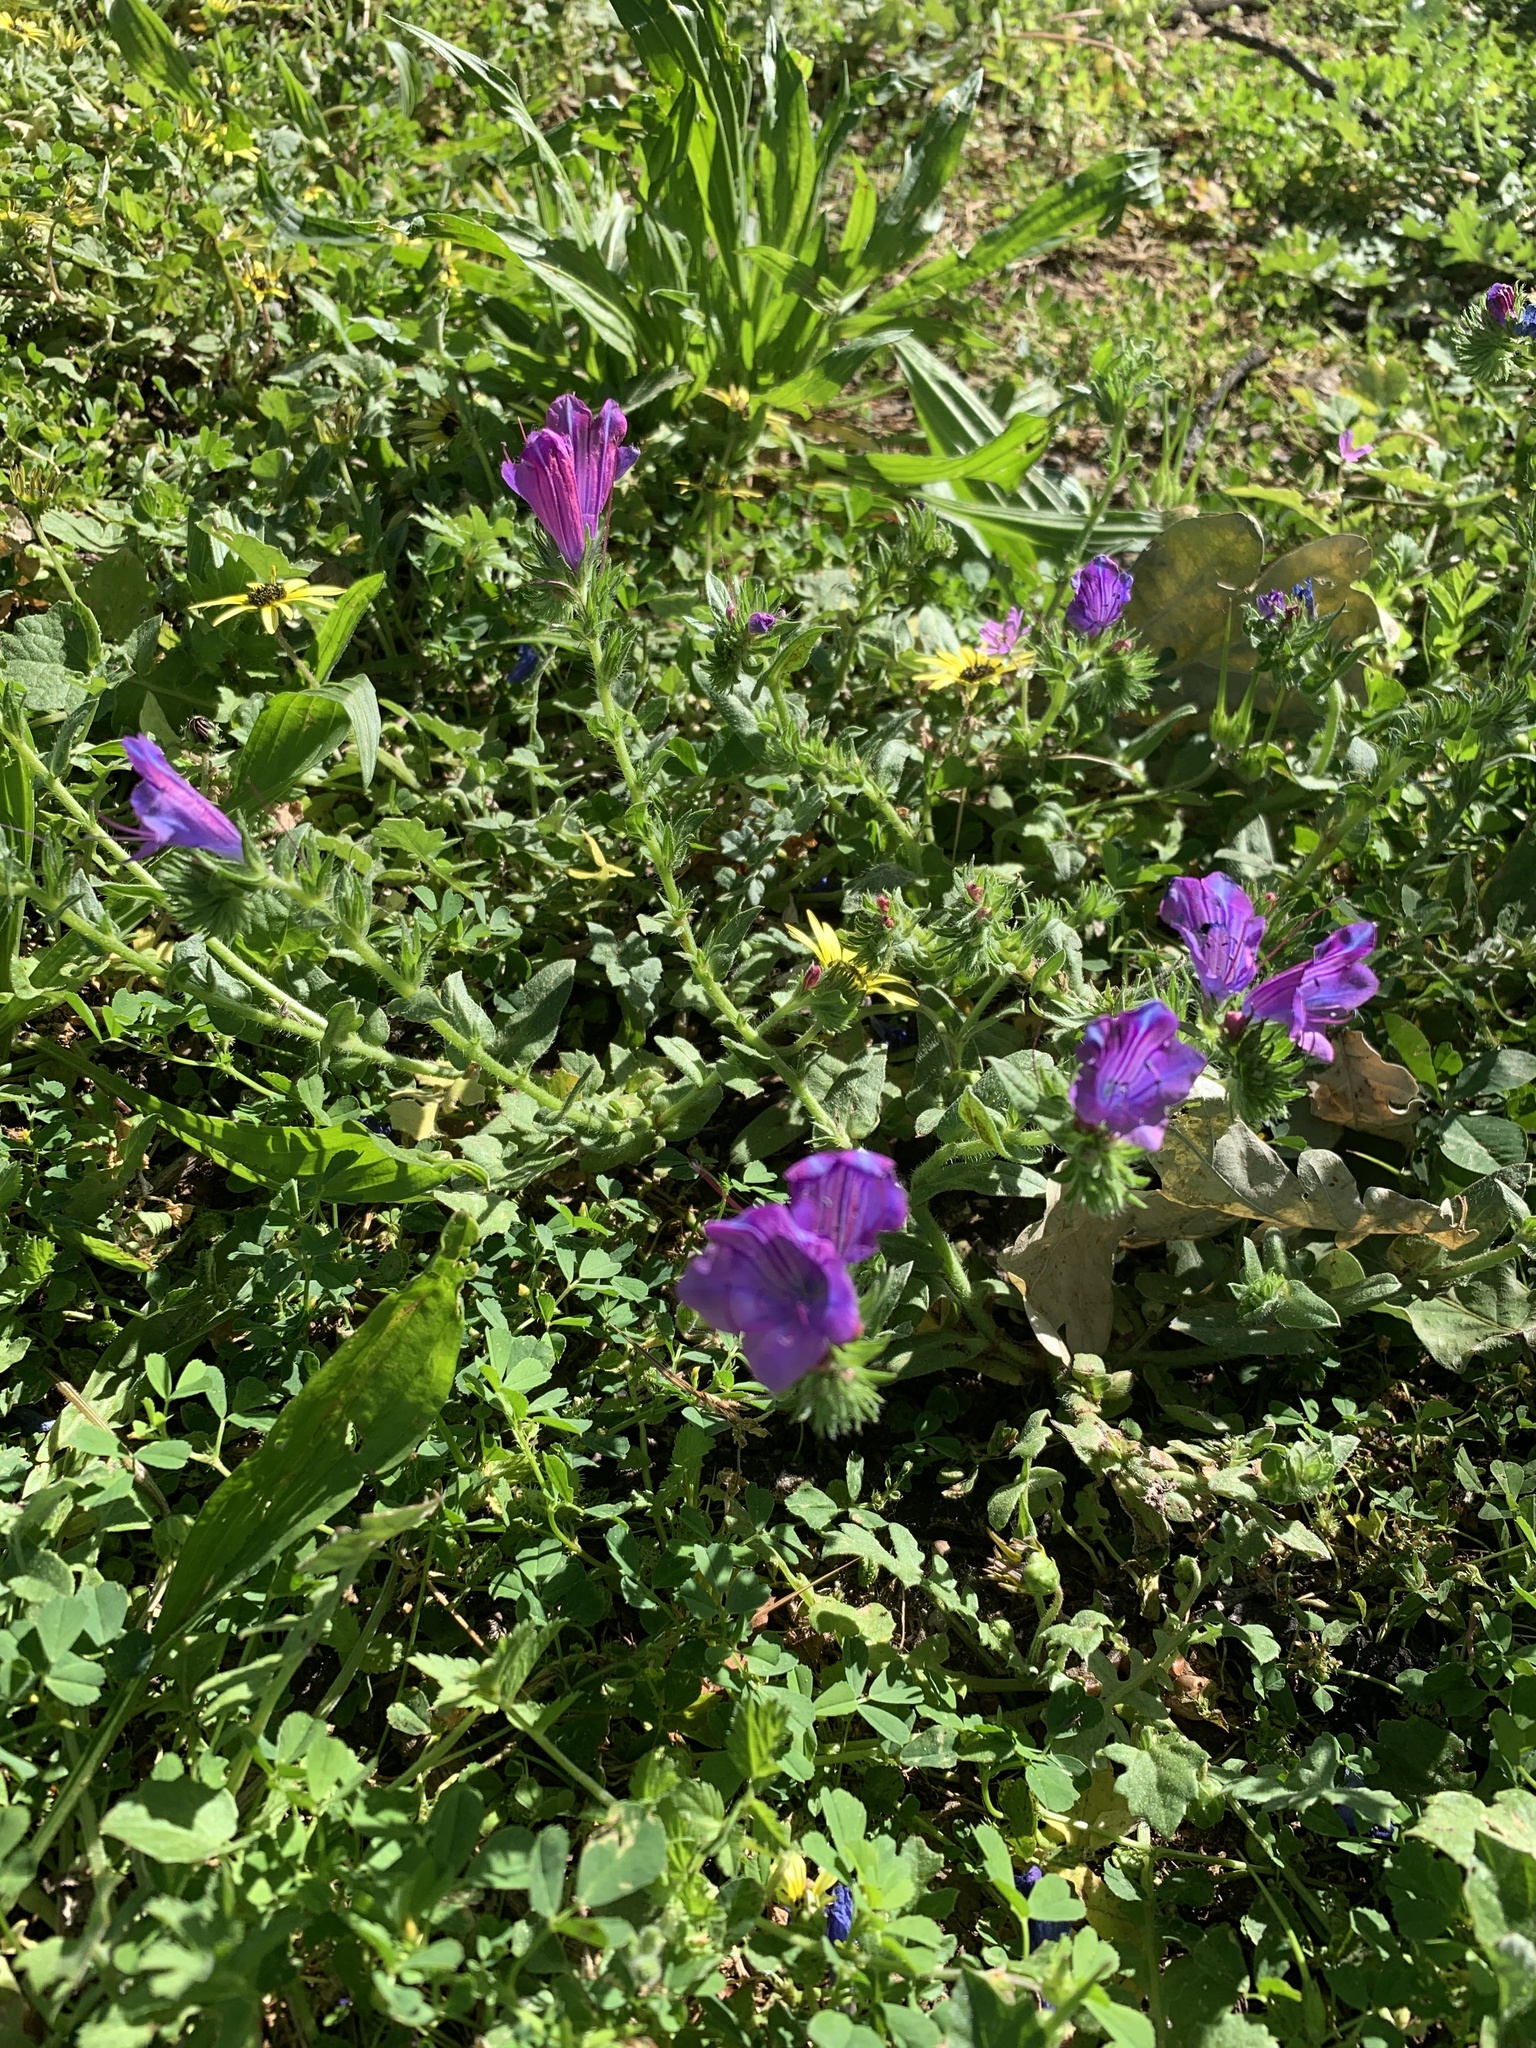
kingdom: Plantae
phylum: Tracheophyta
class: Magnoliopsida
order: Boraginales
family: Boraginaceae
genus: Echium
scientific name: Echium plantagineum
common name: Purple viper's-bugloss
